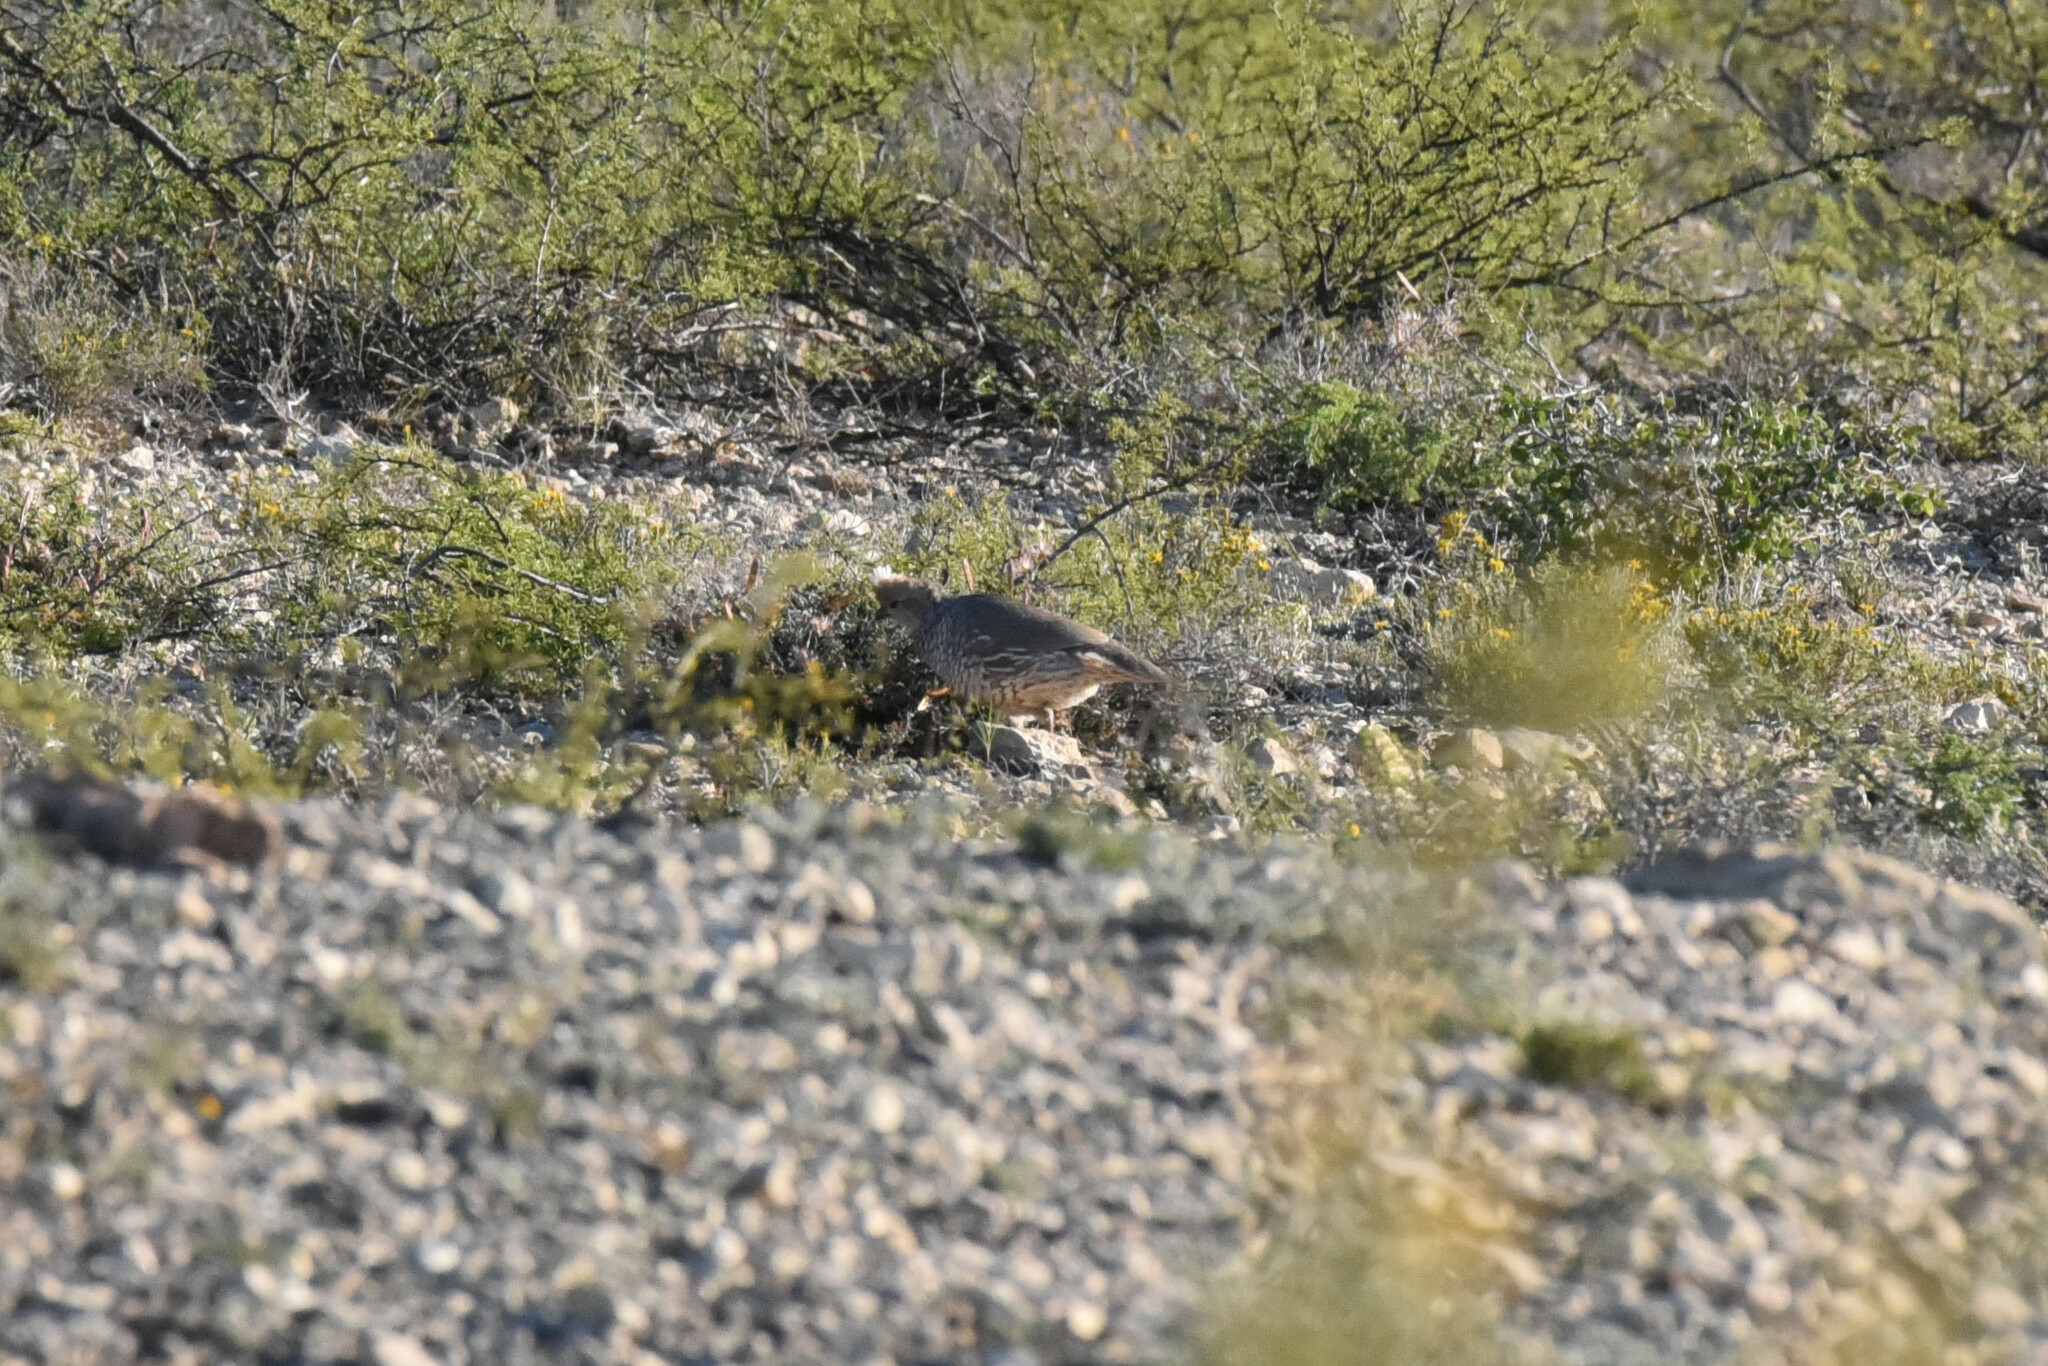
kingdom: Animalia
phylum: Chordata
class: Aves
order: Galliformes
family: Odontophoridae
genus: Callipepla
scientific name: Callipepla squamata
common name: Scaled quail
